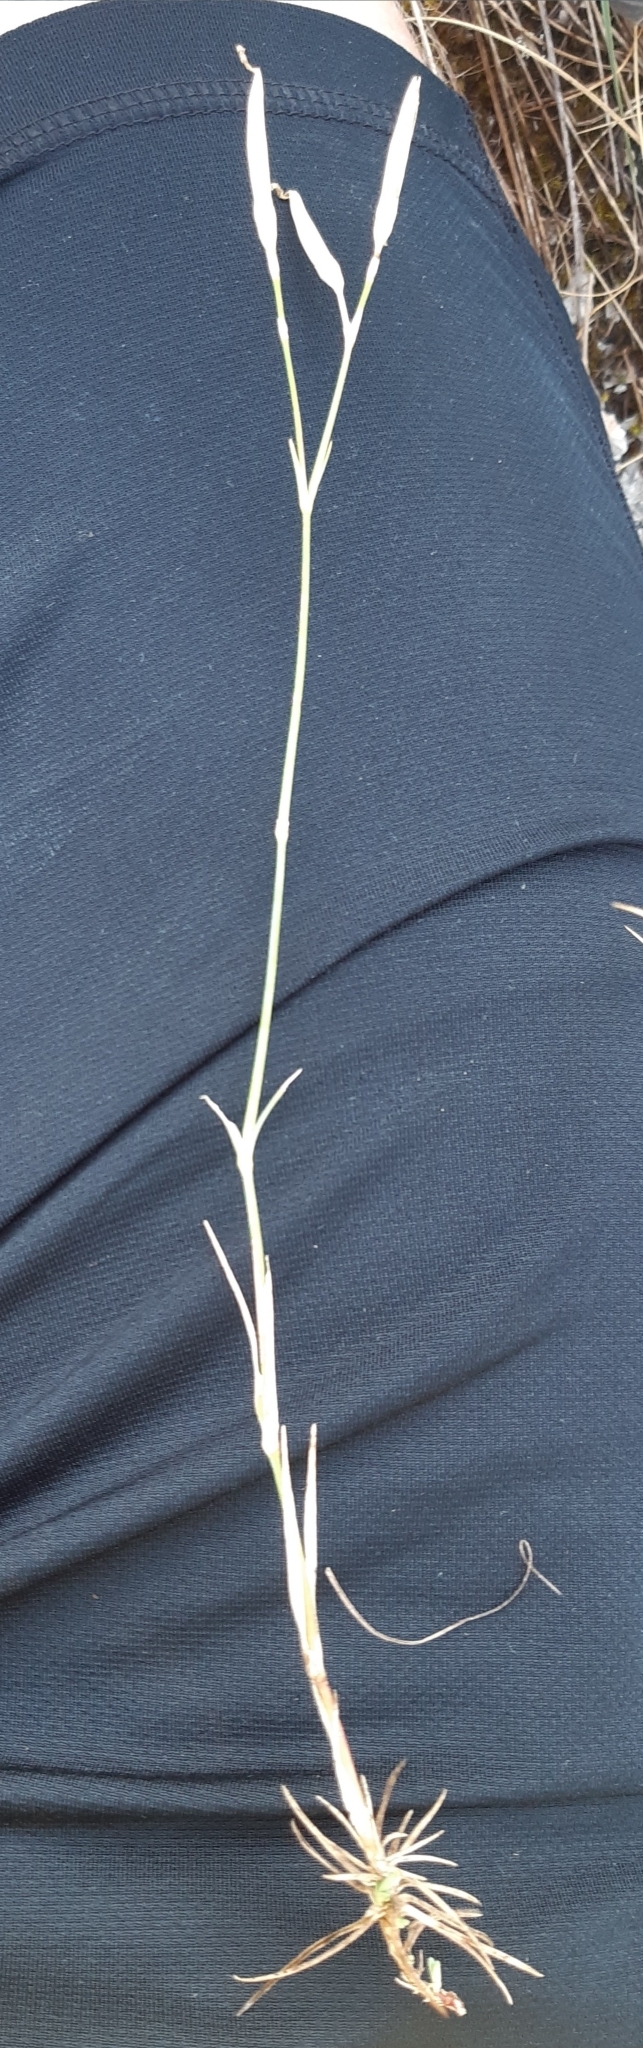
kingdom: Plantae
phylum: Tracheophyta
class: Magnoliopsida
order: Caryophyllales
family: Caryophyllaceae
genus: Dianthus
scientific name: Dianthus praecox
